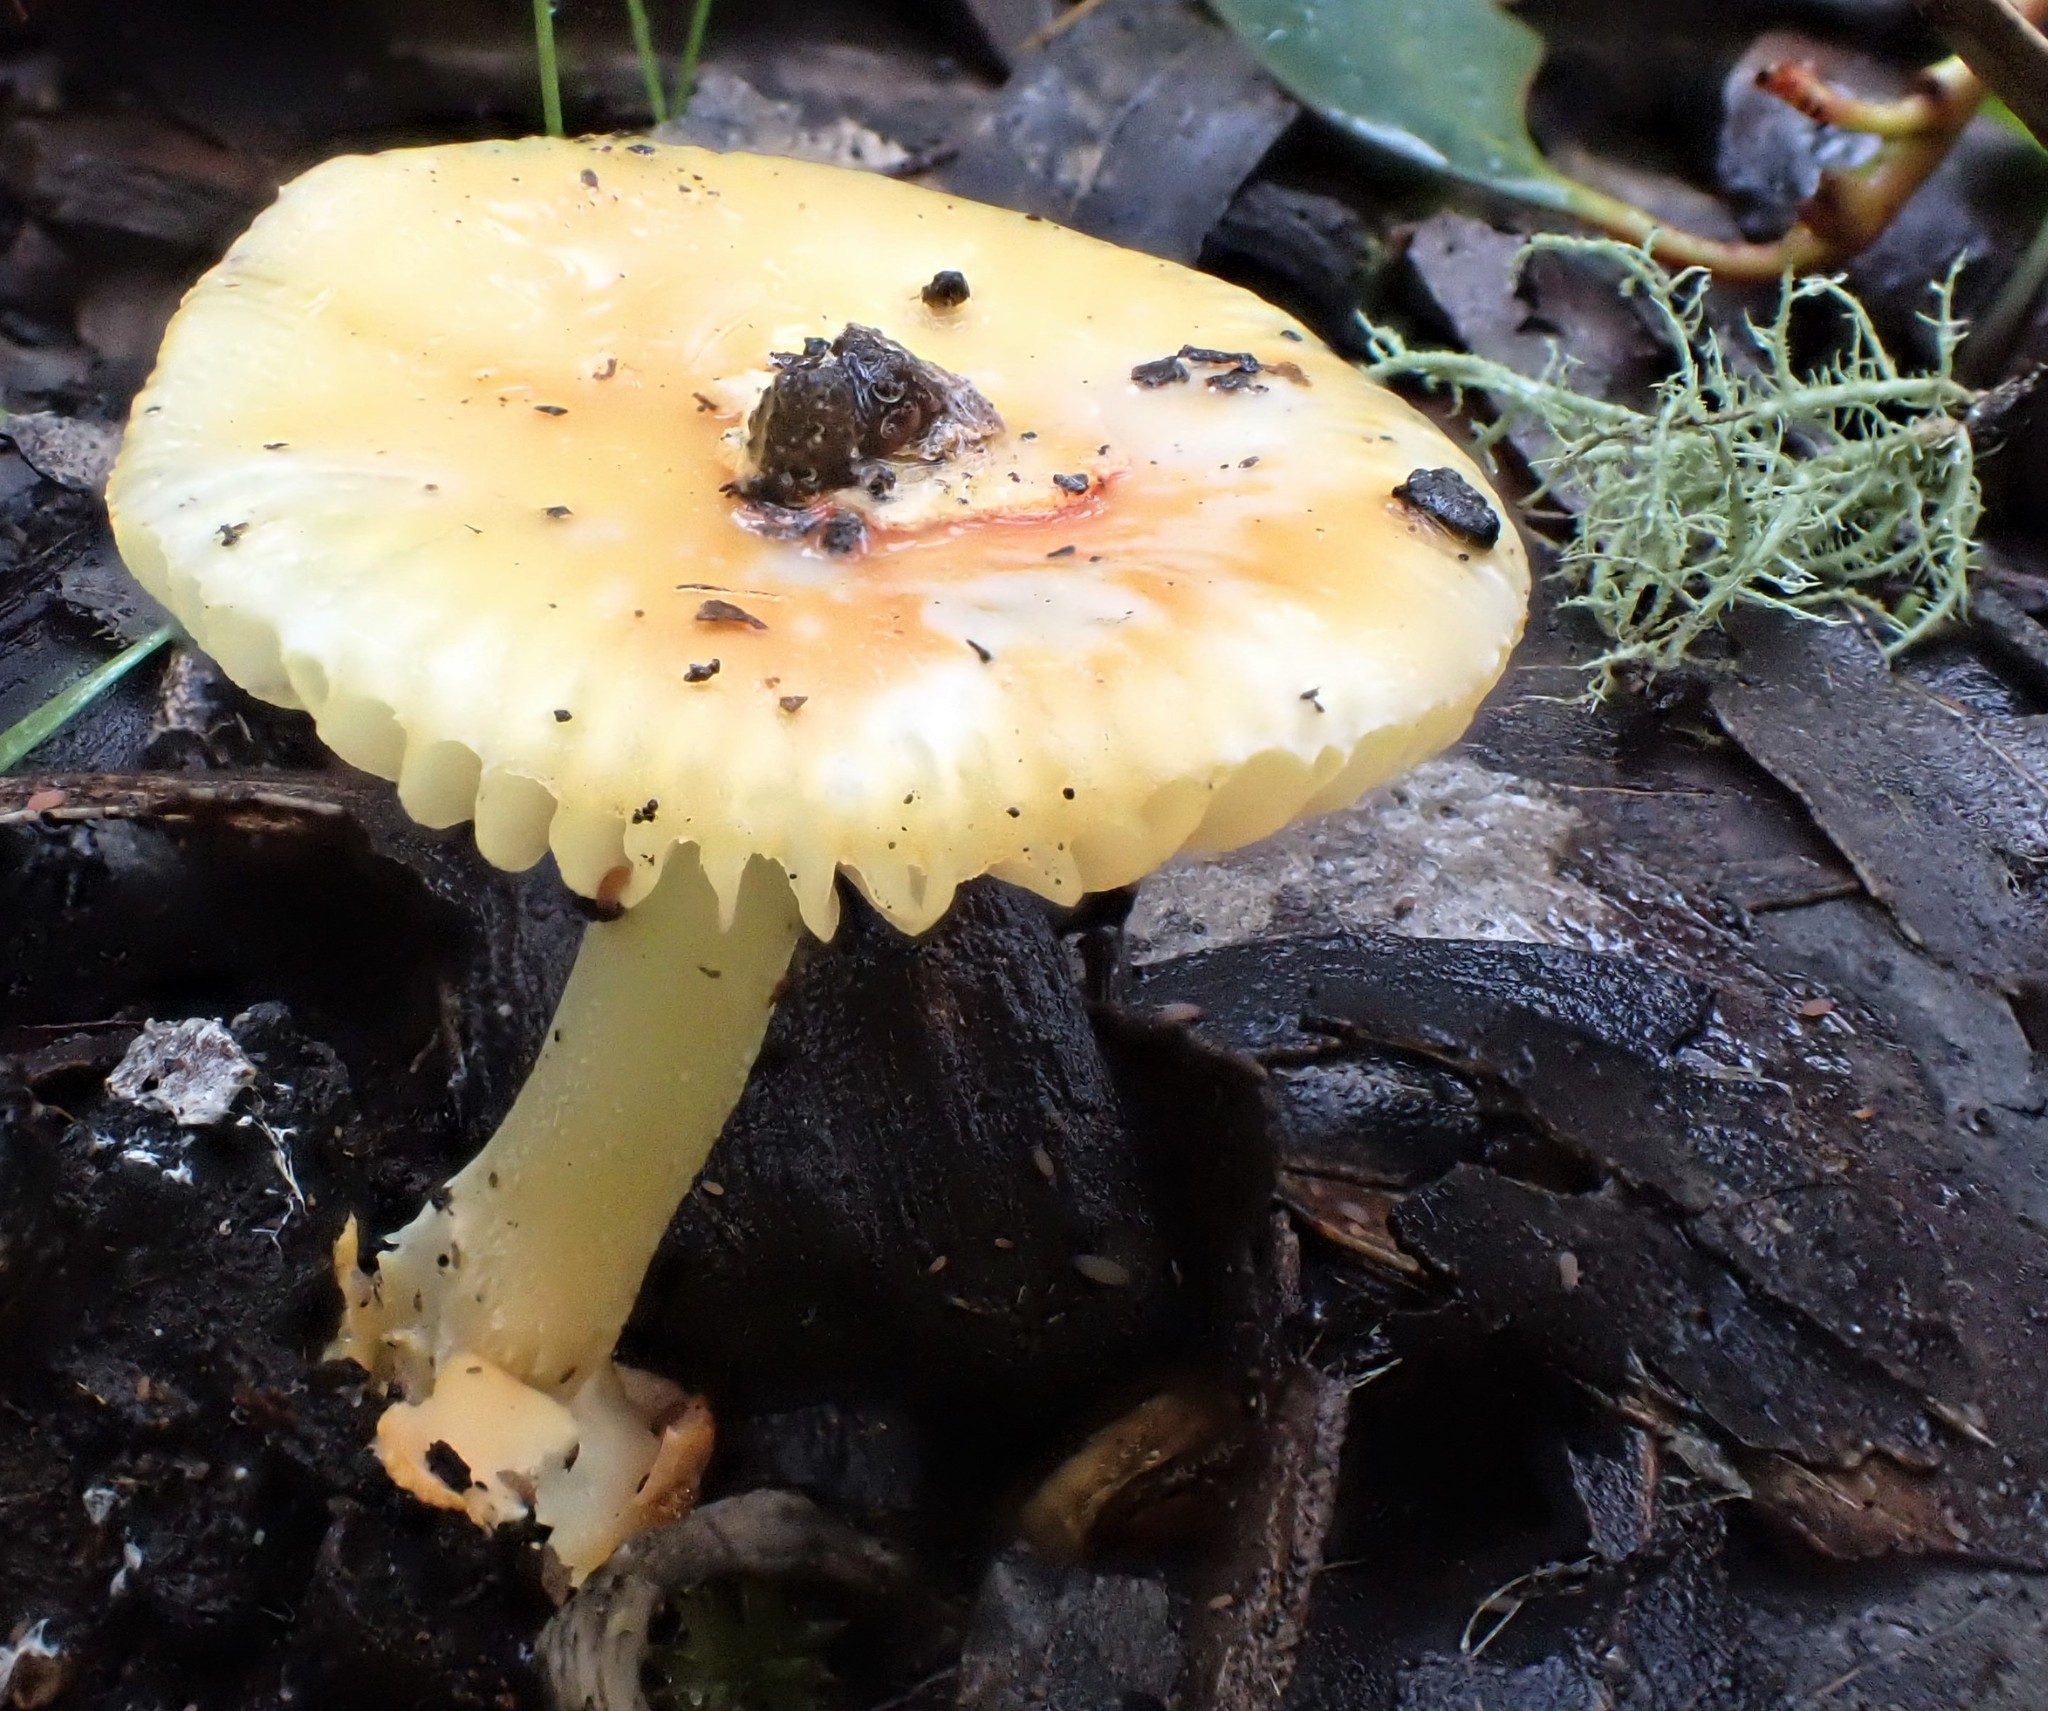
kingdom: Fungi
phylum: Basidiomycota
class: Agaricomycetes
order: Agaricales
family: Amanitaceae
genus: Amanita
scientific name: Amanita xanthocephala
